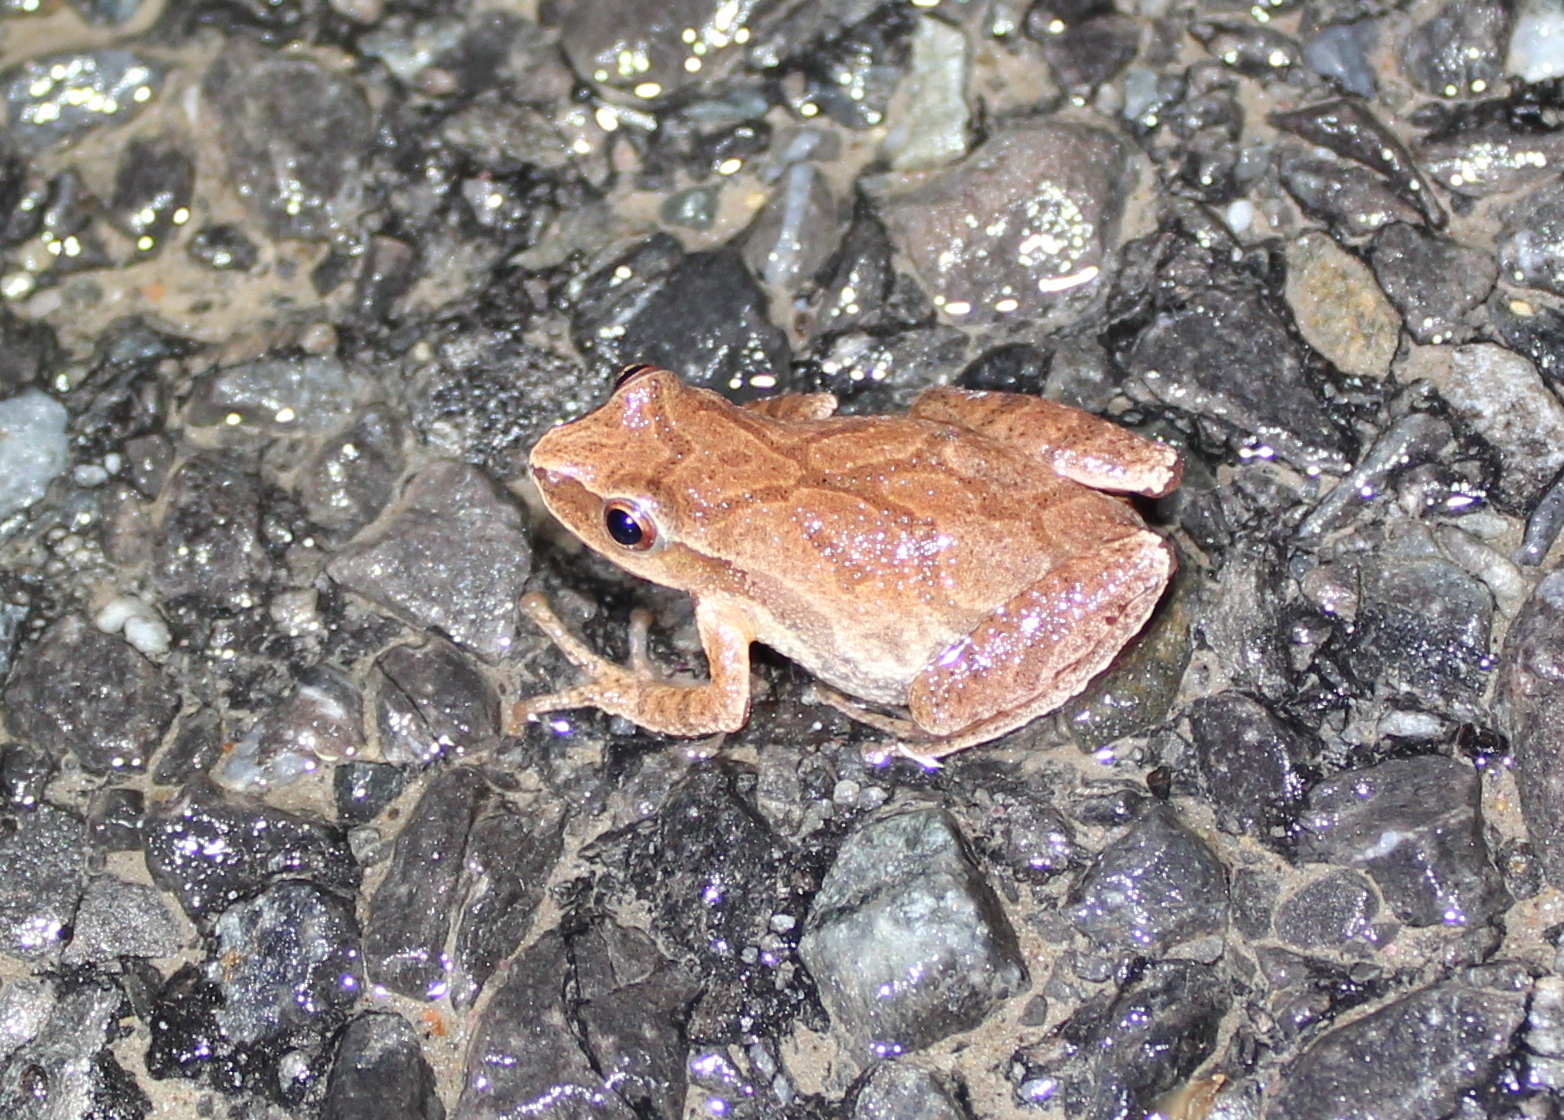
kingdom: Animalia
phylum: Chordata
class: Amphibia
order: Anura
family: Hylidae
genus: Pseudacris
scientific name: Pseudacris crucifer
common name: Spring peeper
